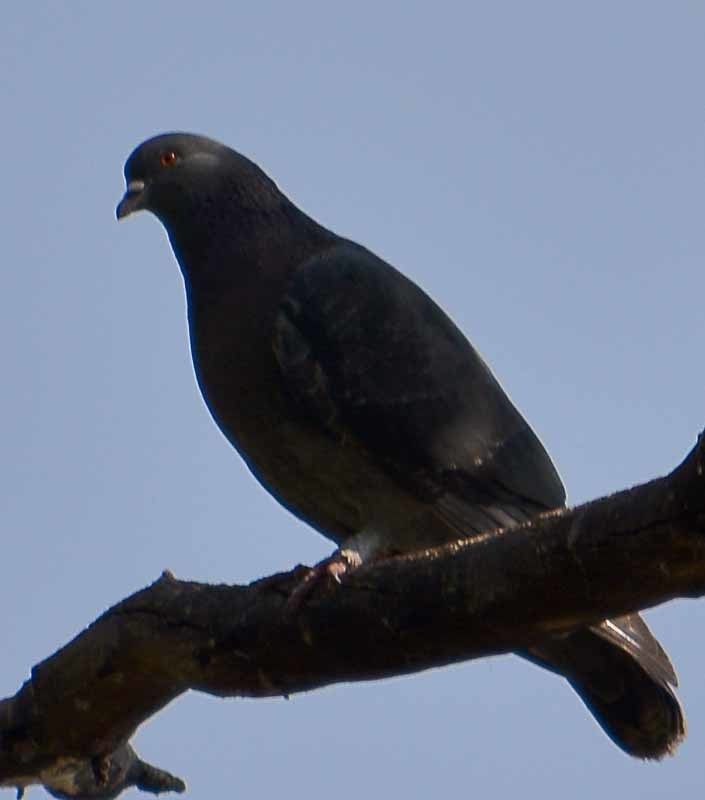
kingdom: Animalia
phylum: Chordata
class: Aves
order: Columbiformes
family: Columbidae
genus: Columba
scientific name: Columba livia
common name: Rock pigeon
